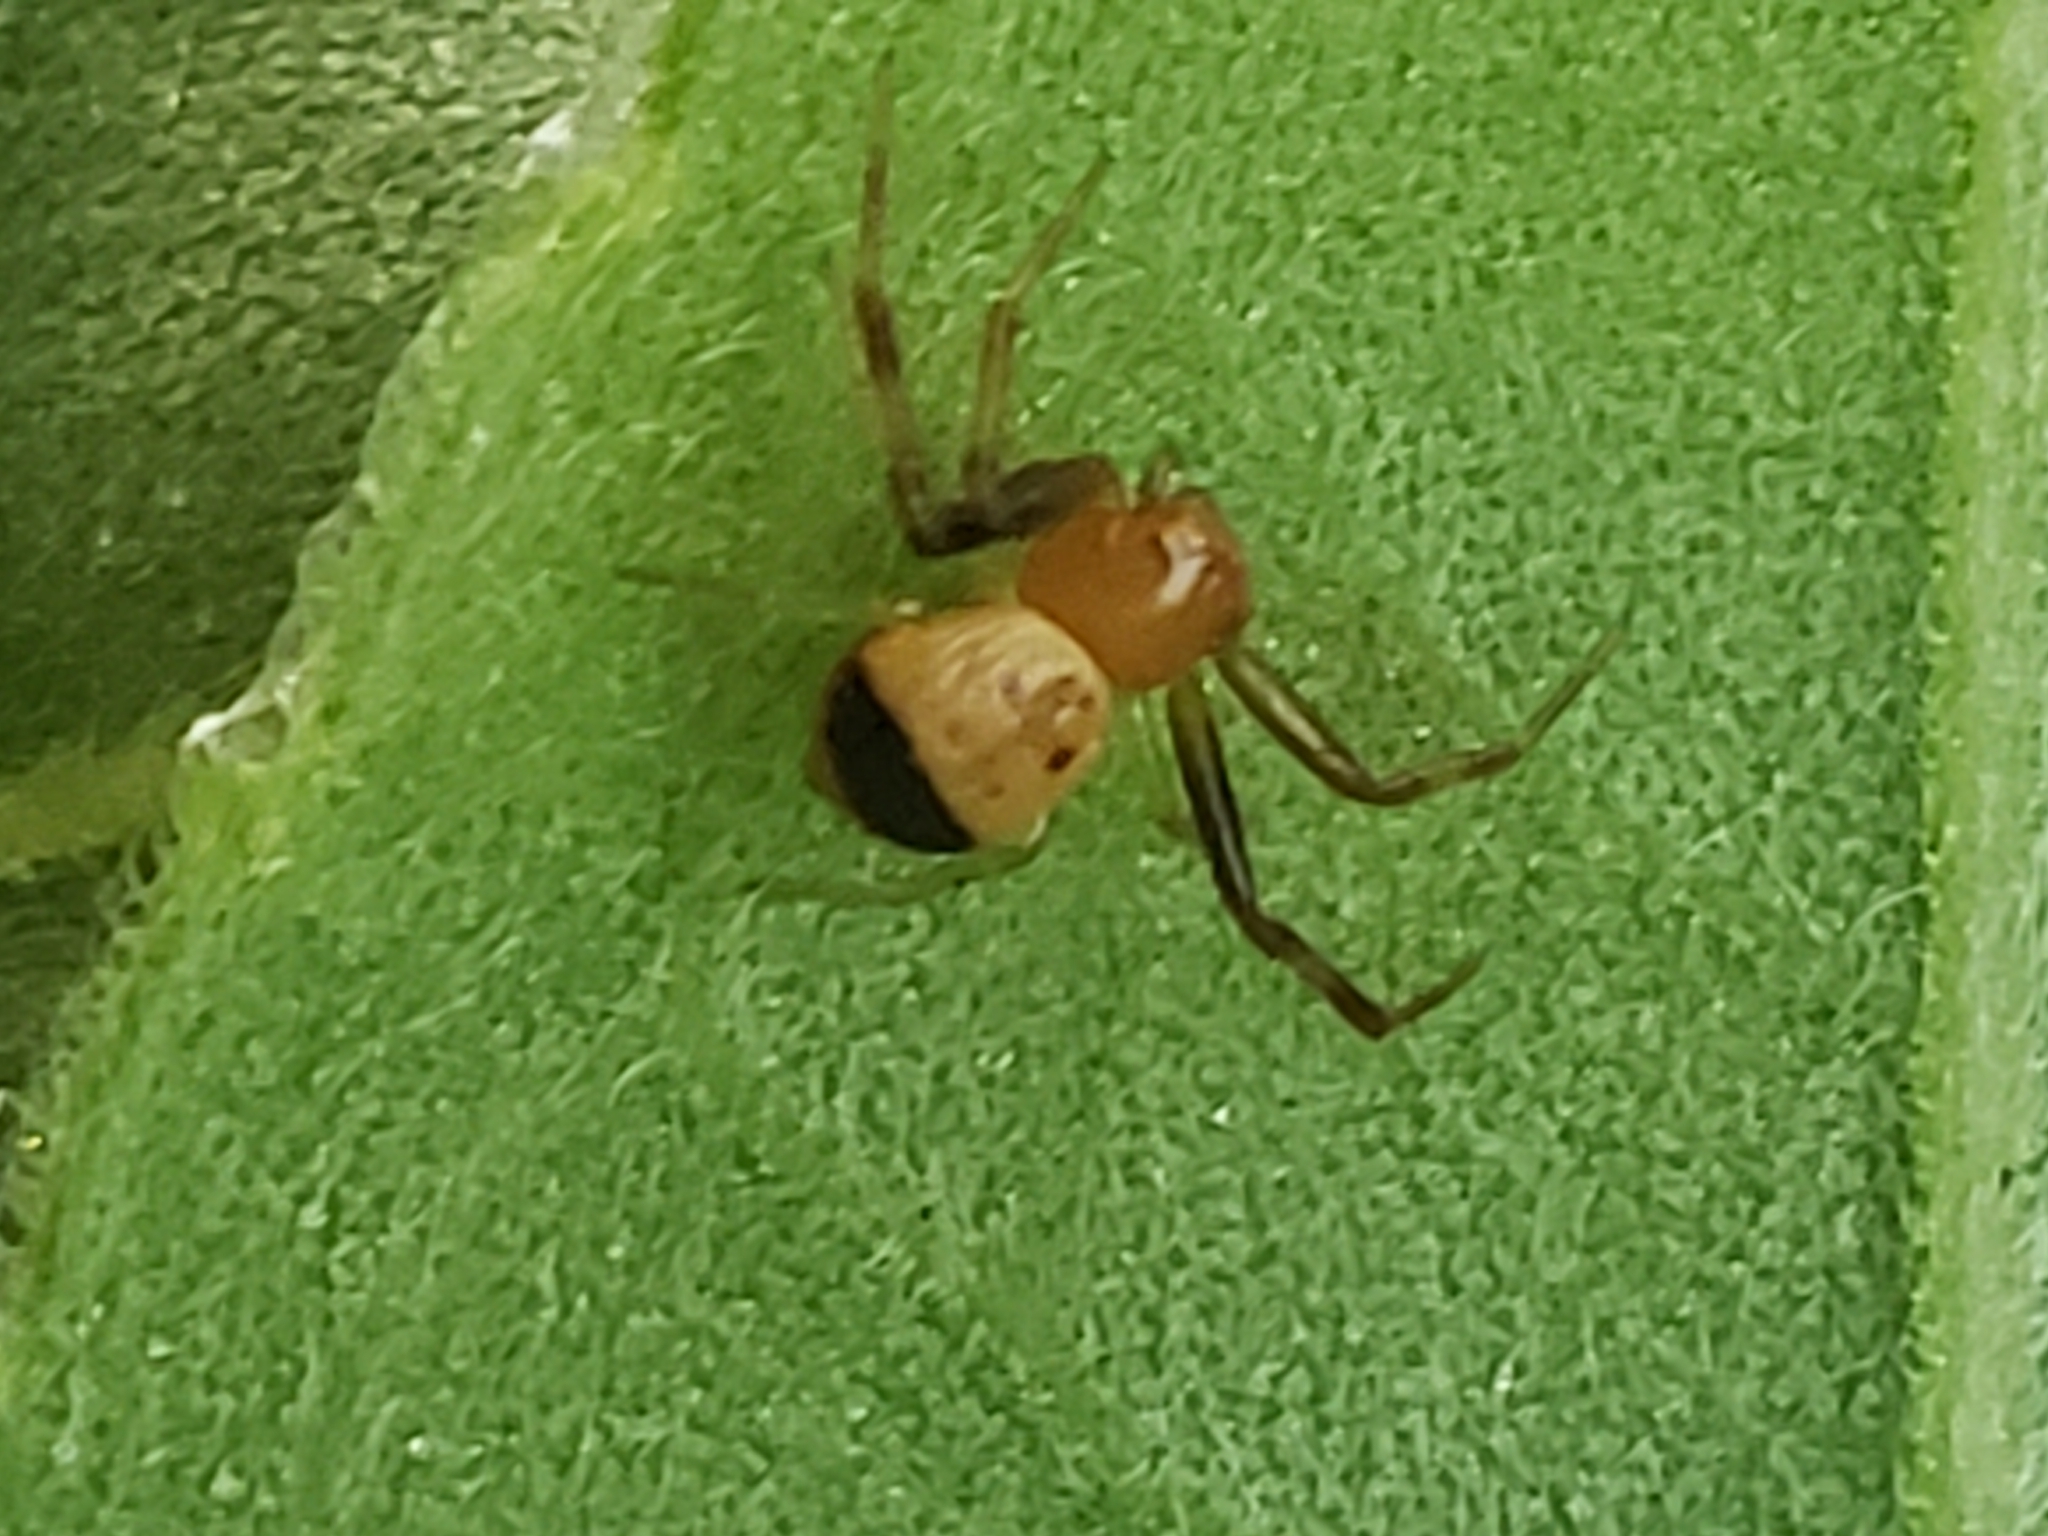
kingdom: Animalia
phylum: Arthropoda
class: Arachnida
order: Araneae
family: Thomisidae
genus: Synema
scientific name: Synema parvulum
